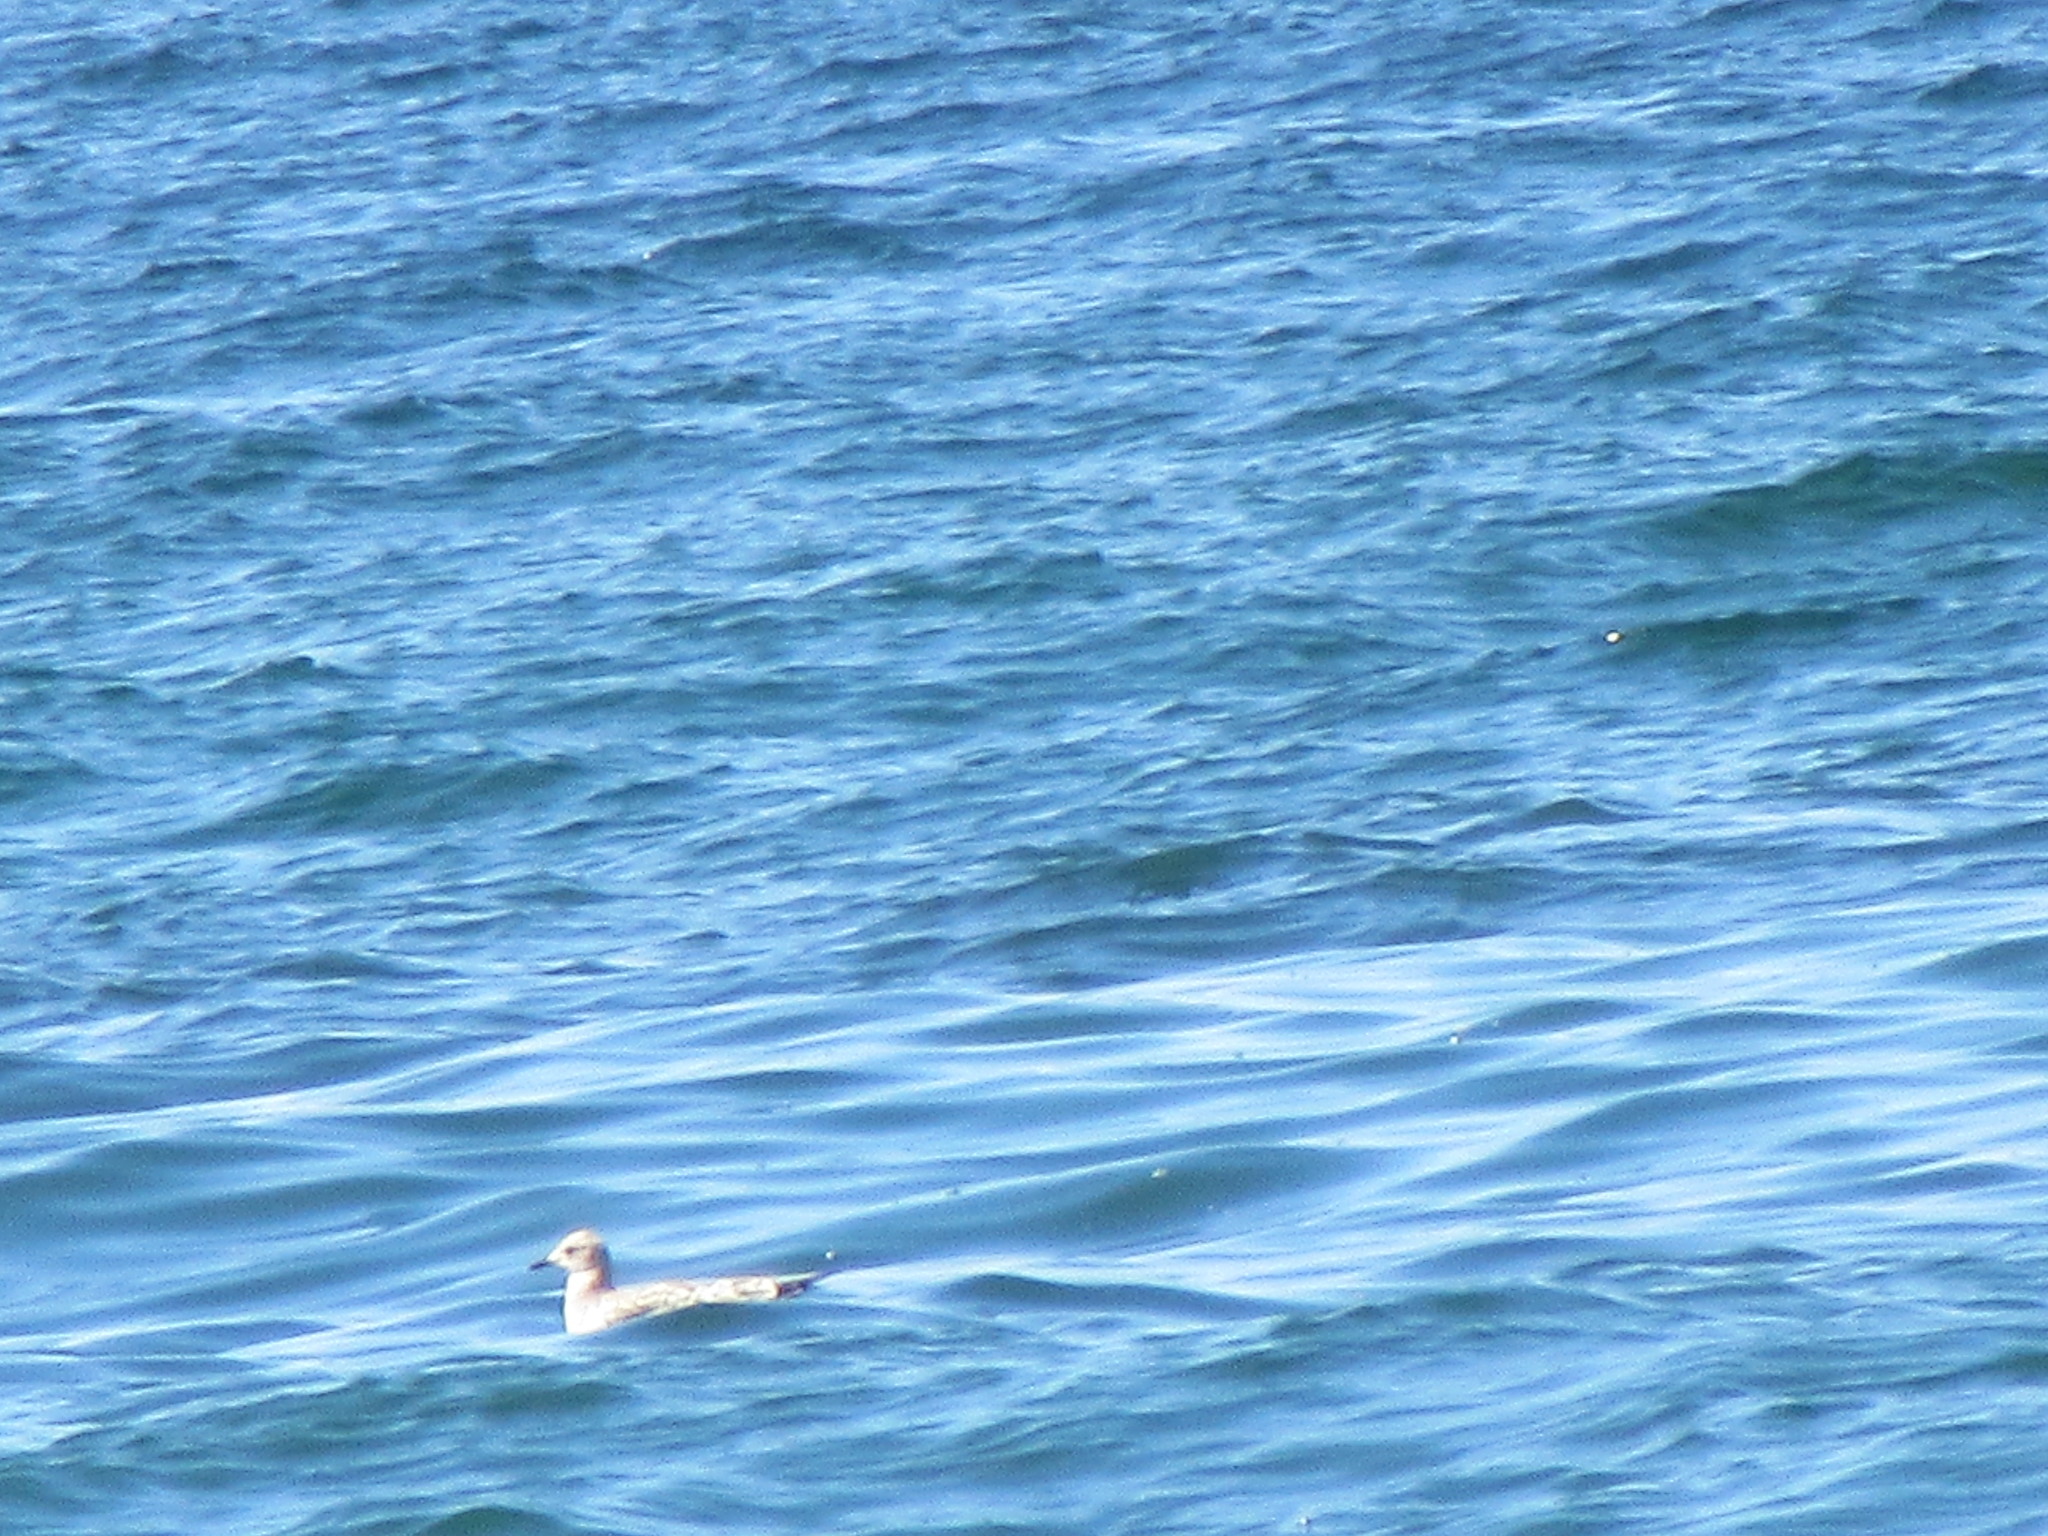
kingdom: Animalia
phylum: Chordata
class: Aves
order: Charadriiformes
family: Laridae
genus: Larus
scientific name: Larus delawarensis
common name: Ring-billed gull
